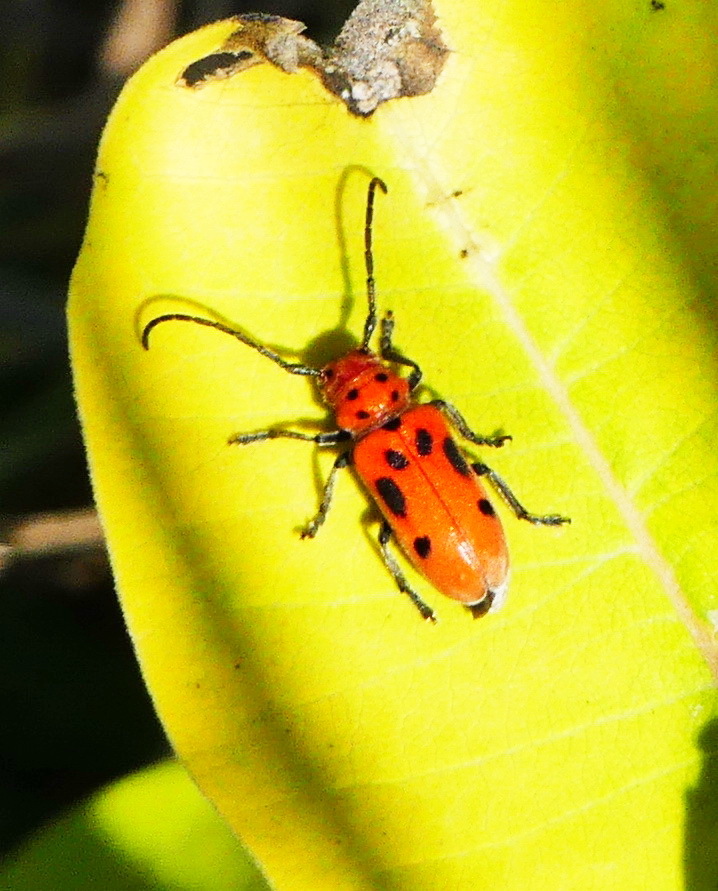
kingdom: Animalia
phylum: Arthropoda
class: Insecta
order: Coleoptera
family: Cerambycidae
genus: Tetraopes
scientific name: Tetraopes tetrophthalmus
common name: Red milkweed beetle
